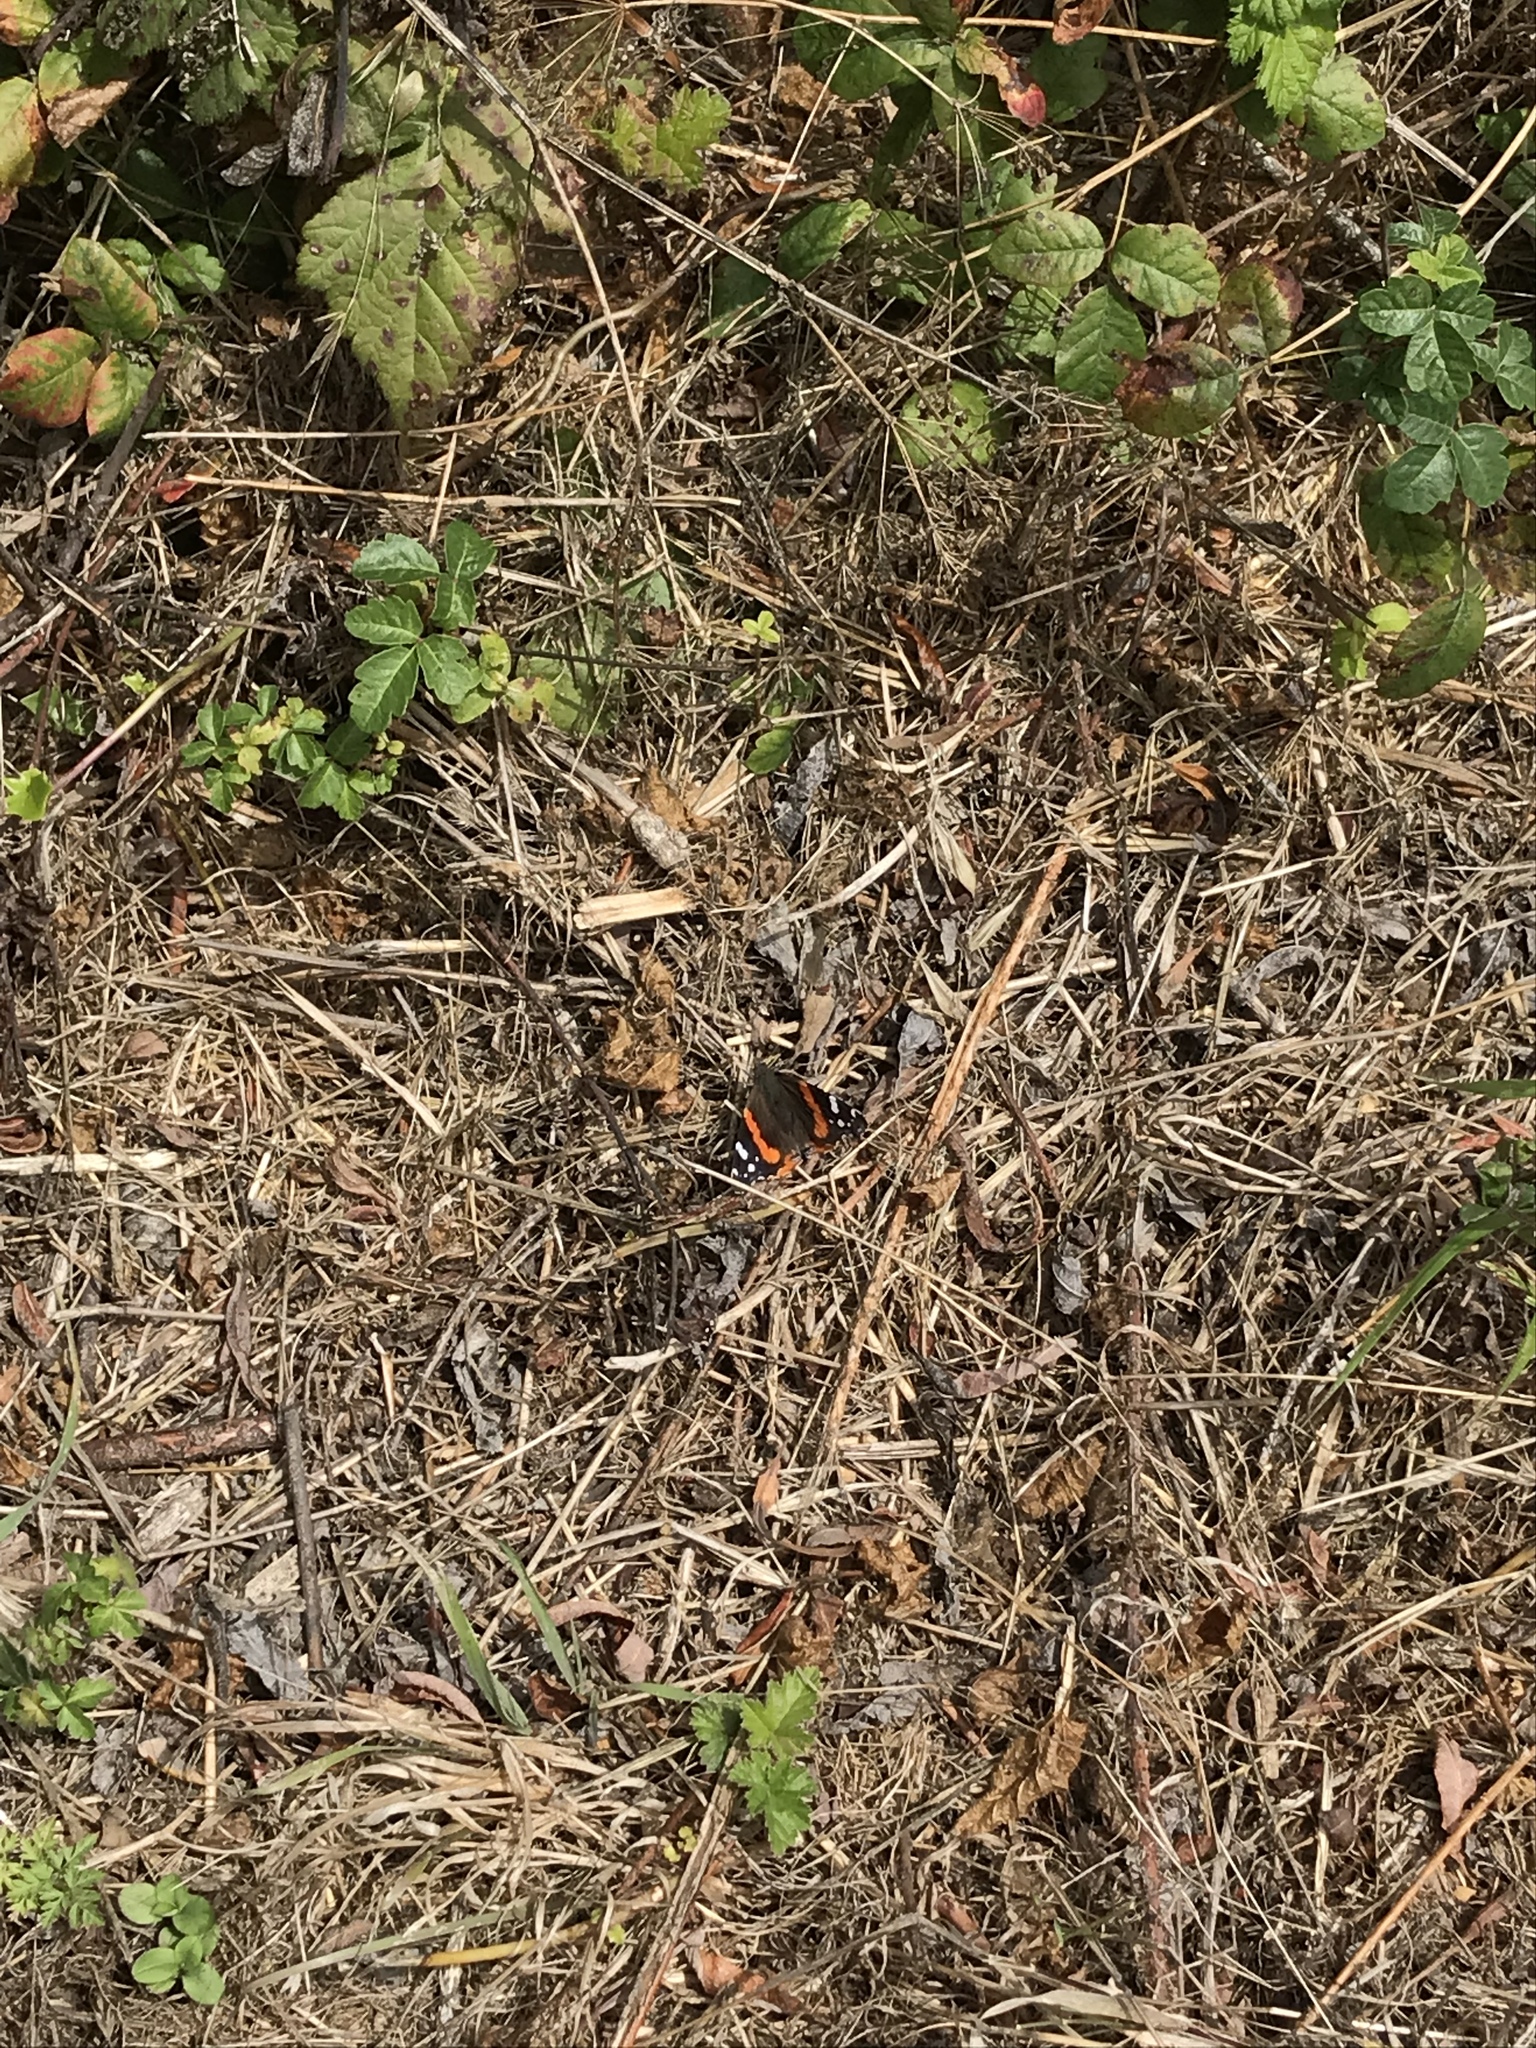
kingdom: Animalia
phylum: Arthropoda
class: Insecta
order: Lepidoptera
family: Nymphalidae
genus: Vanessa
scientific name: Vanessa atalanta
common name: Red admiral
